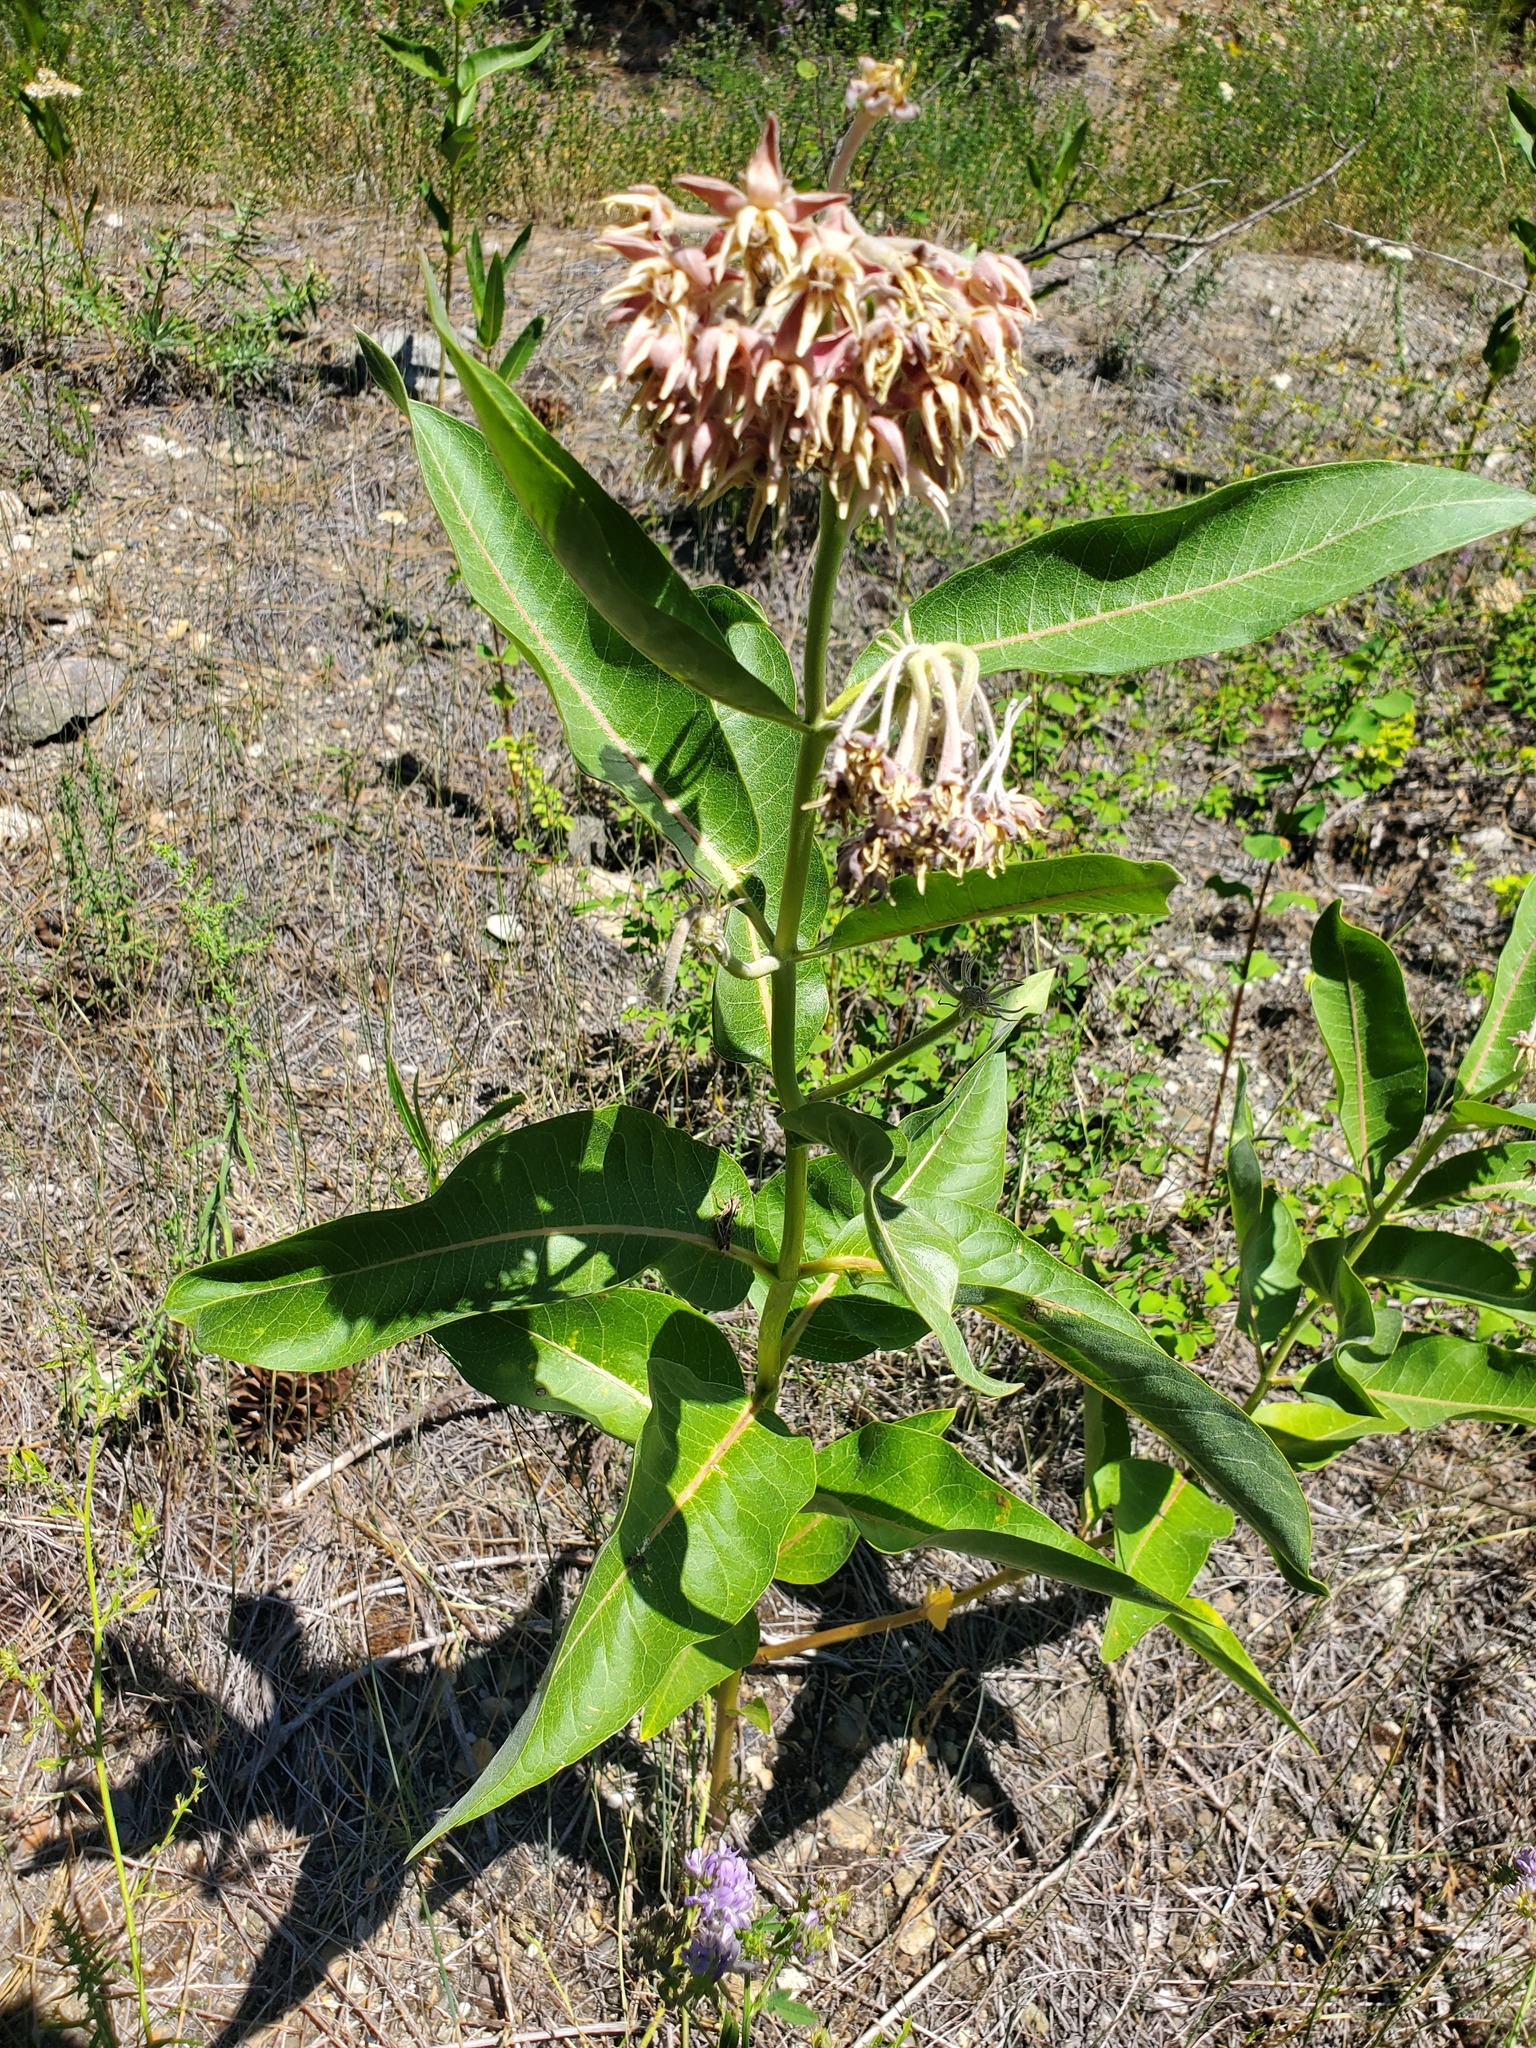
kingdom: Plantae
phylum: Tracheophyta
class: Magnoliopsida
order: Gentianales
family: Apocynaceae
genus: Asclepias
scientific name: Asclepias speciosa
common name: Showy milkweed
